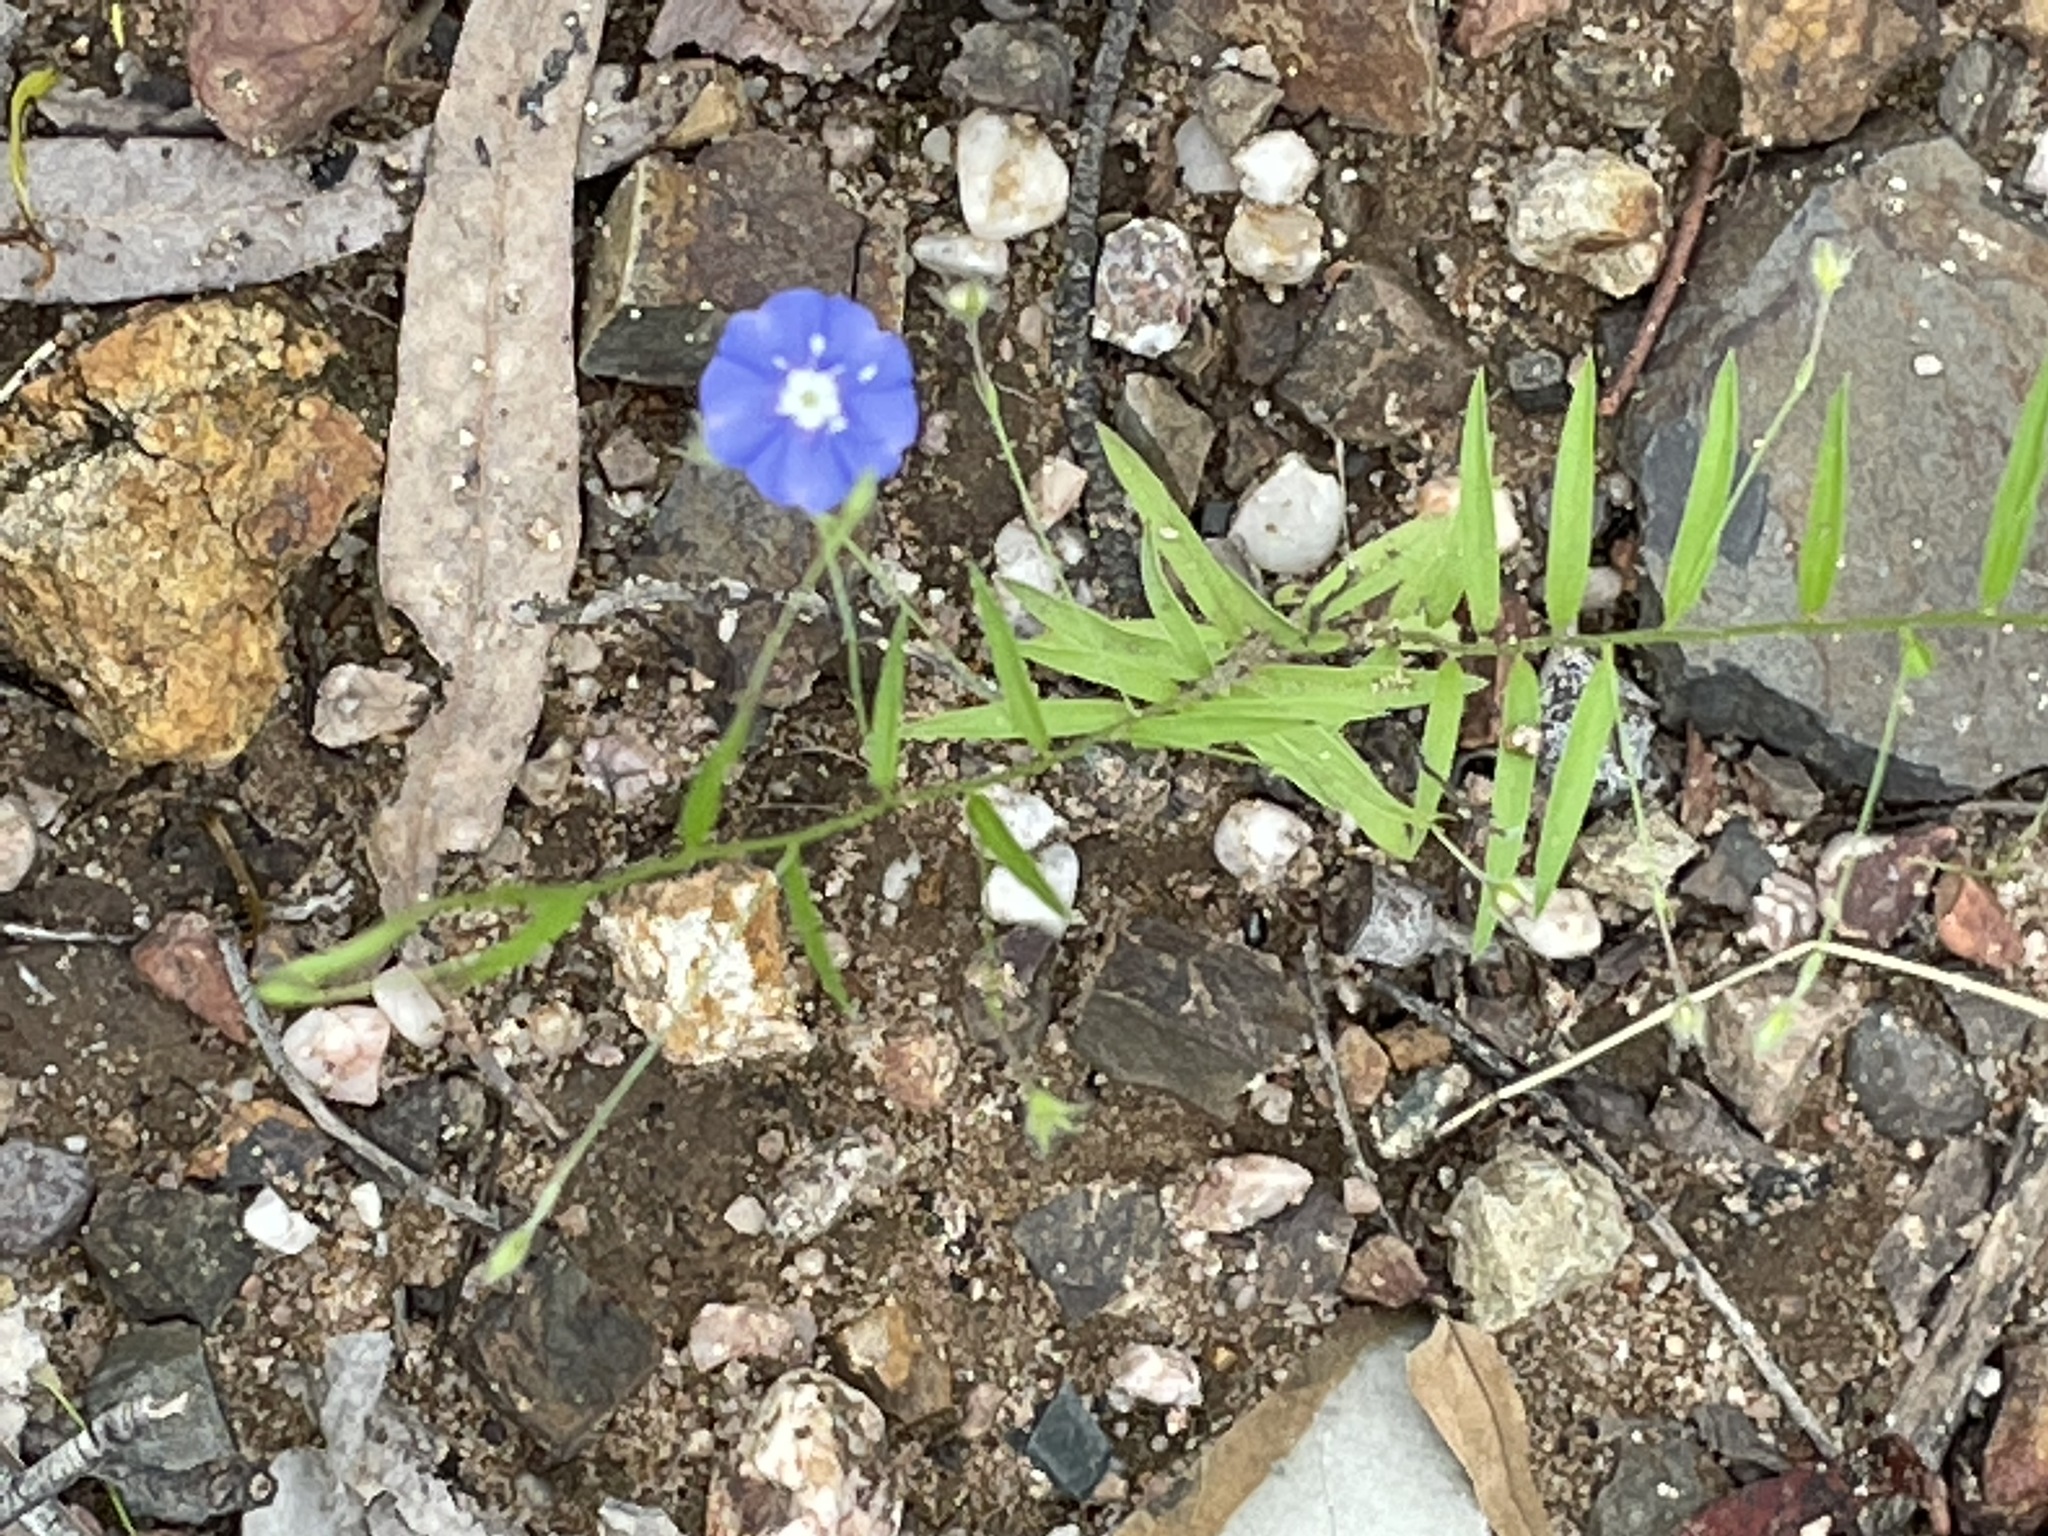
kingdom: Plantae
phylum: Tracheophyta
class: Magnoliopsida
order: Solanales
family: Convolvulaceae
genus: Evolvulus
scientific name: Evolvulus alsinoides
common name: Slender dwarf morning-glory
